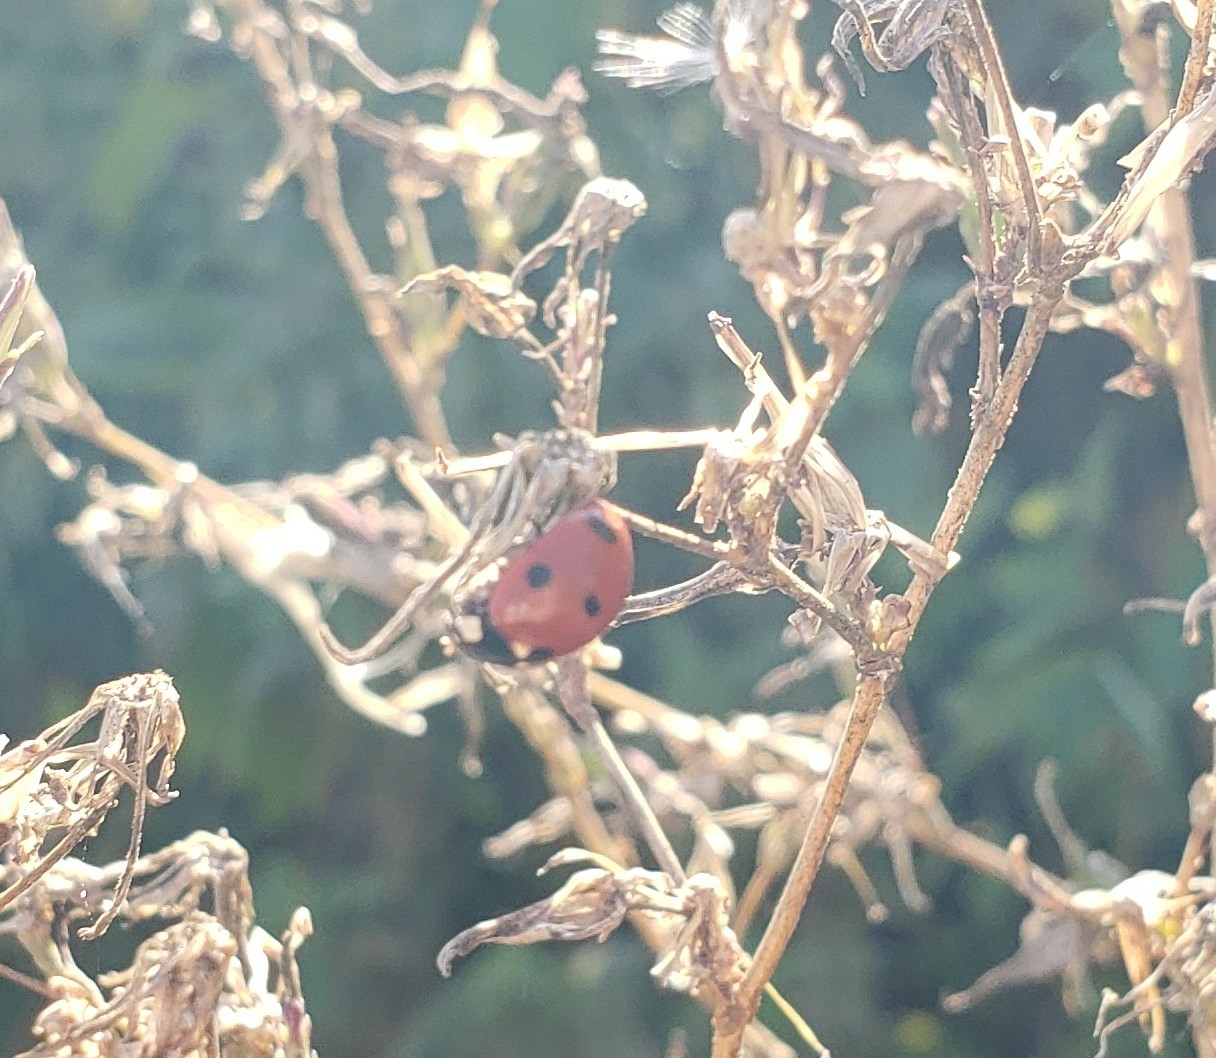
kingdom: Animalia
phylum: Arthropoda
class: Insecta
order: Coleoptera
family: Coccinellidae
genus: Coccinella
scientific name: Coccinella septempunctata
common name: Sevenspotted lady beetle
